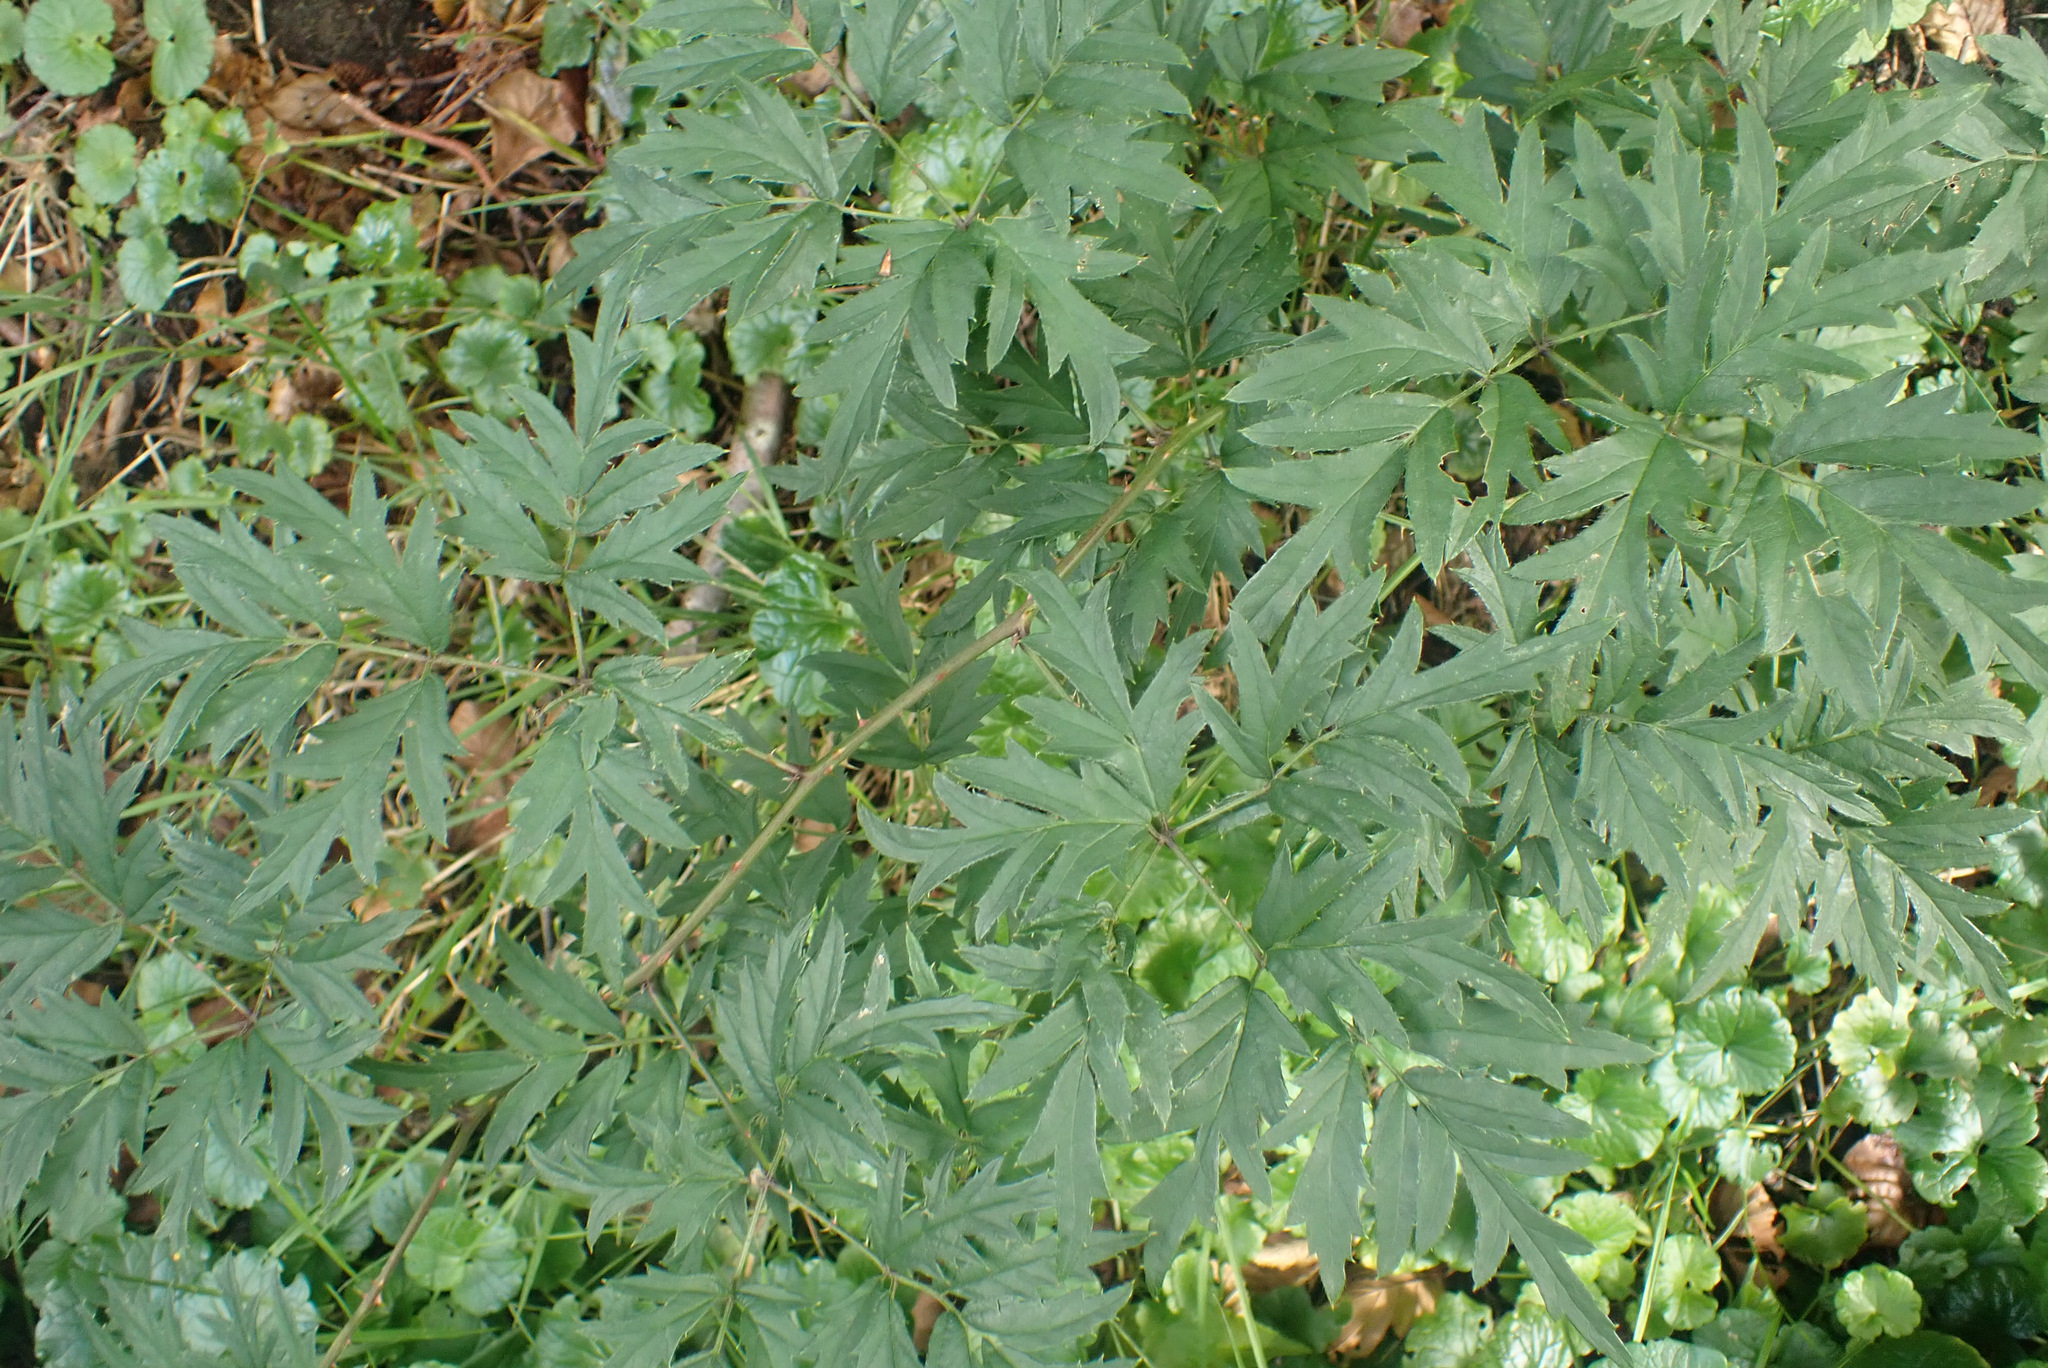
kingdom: Plantae
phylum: Tracheophyta
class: Magnoliopsida
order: Rosales
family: Rosaceae
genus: Rubus
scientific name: Rubus laciniatus
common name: Evergreen blackberry
